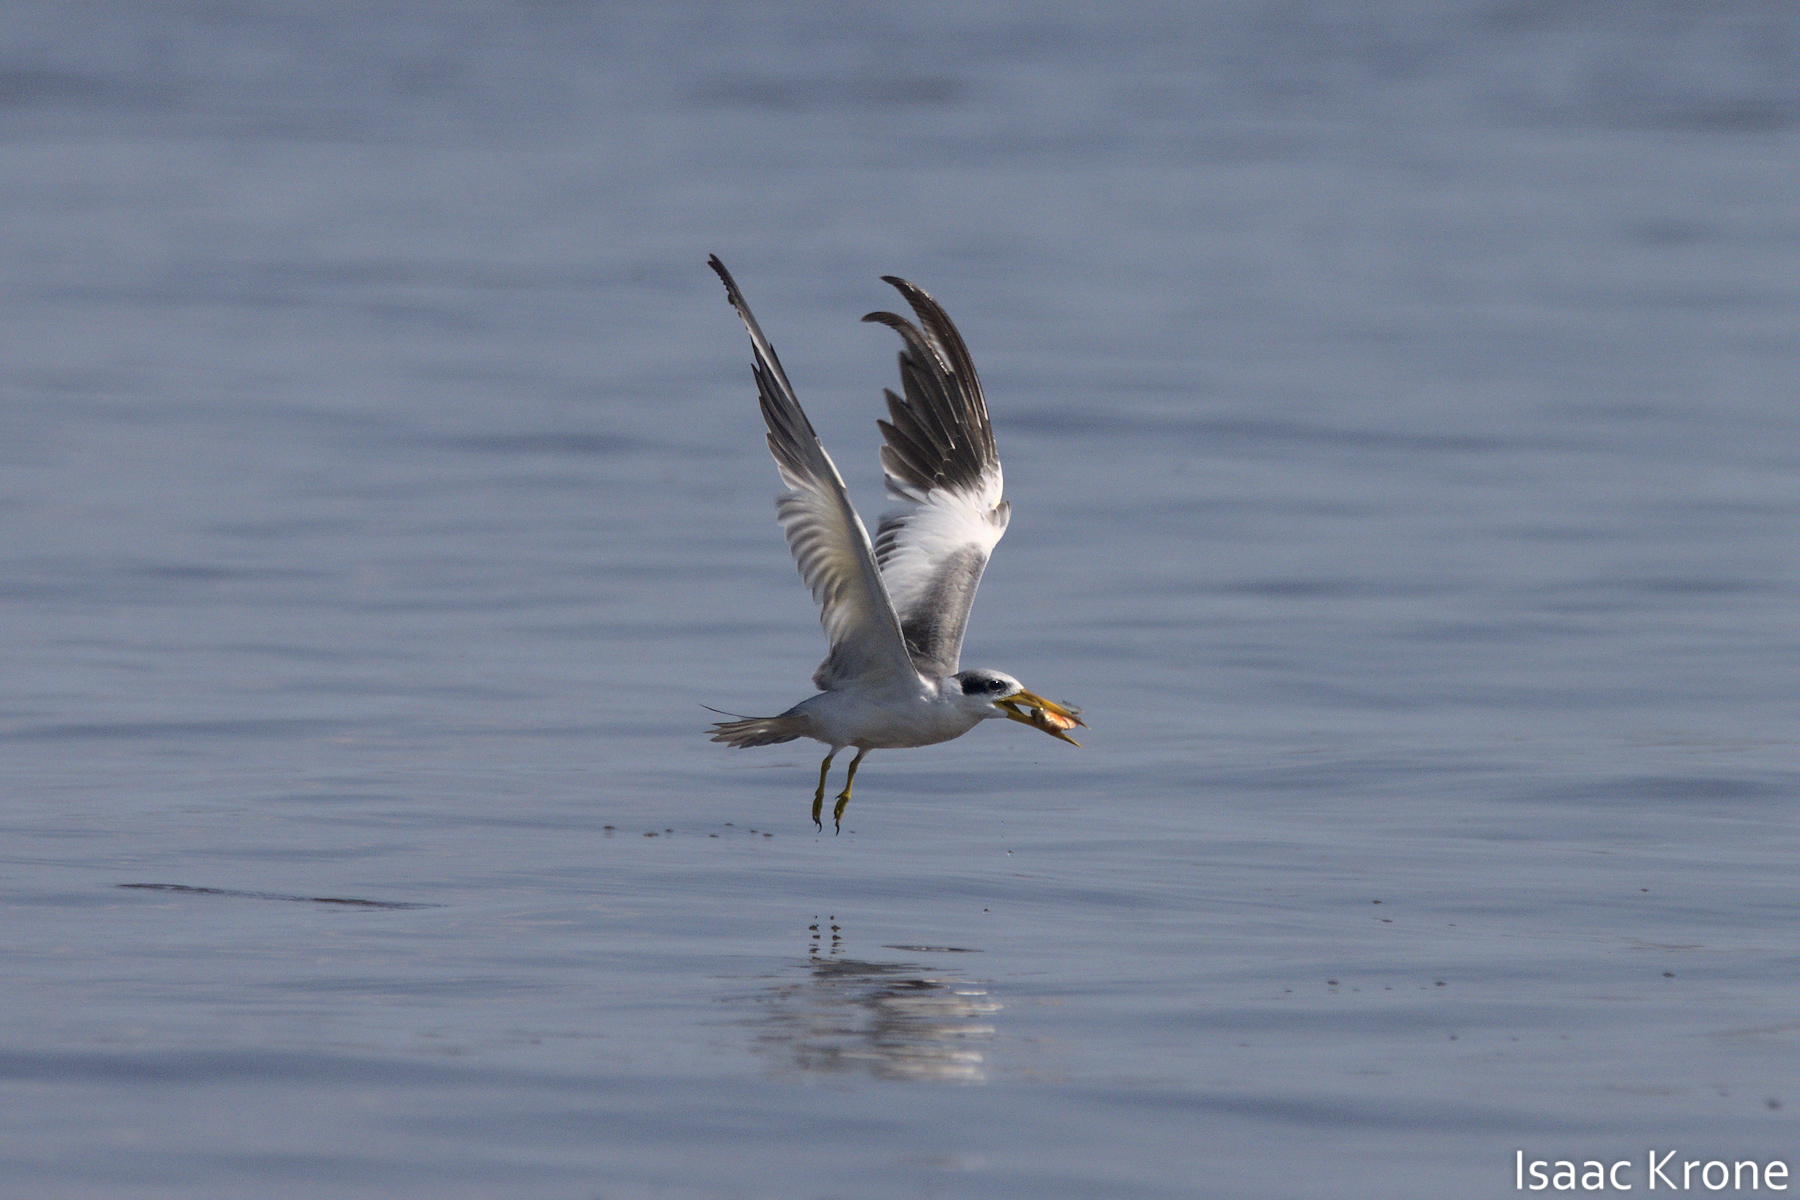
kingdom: Animalia
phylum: Chordata
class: Aves
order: Charadriiformes
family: Laridae
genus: Phaetusa
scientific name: Phaetusa simplex
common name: Large-billed tern
